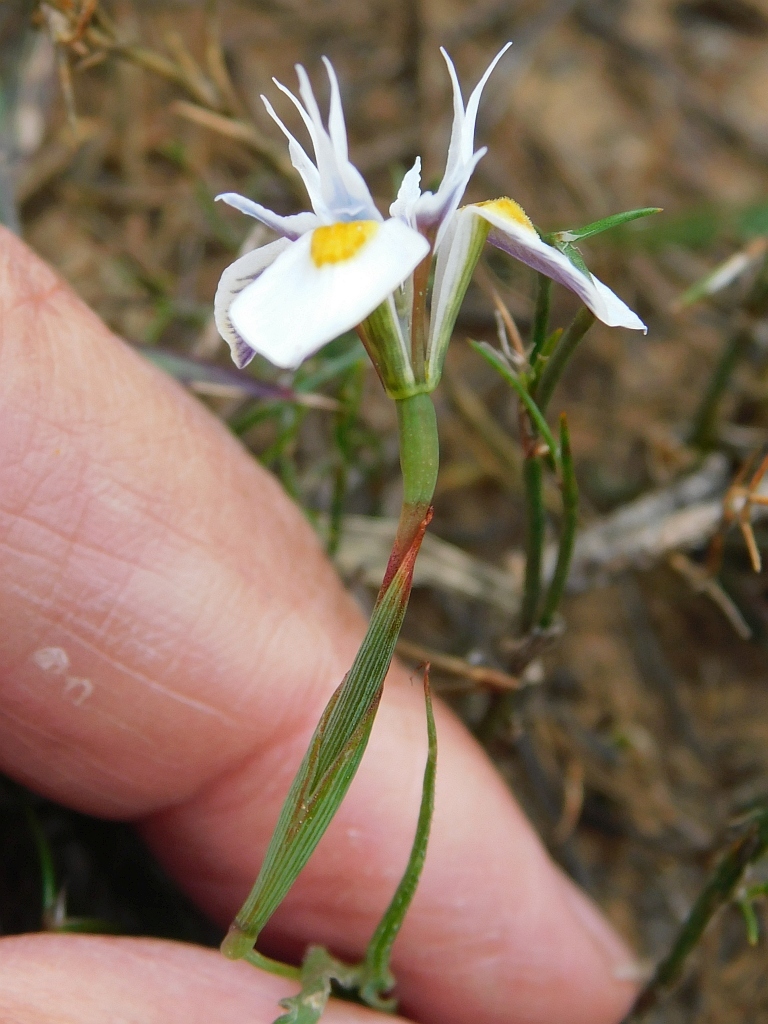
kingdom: Plantae
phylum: Tracheophyta
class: Liliopsida
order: Asparagales
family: Iridaceae
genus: Moraea
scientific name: Moraea fergusoniae
